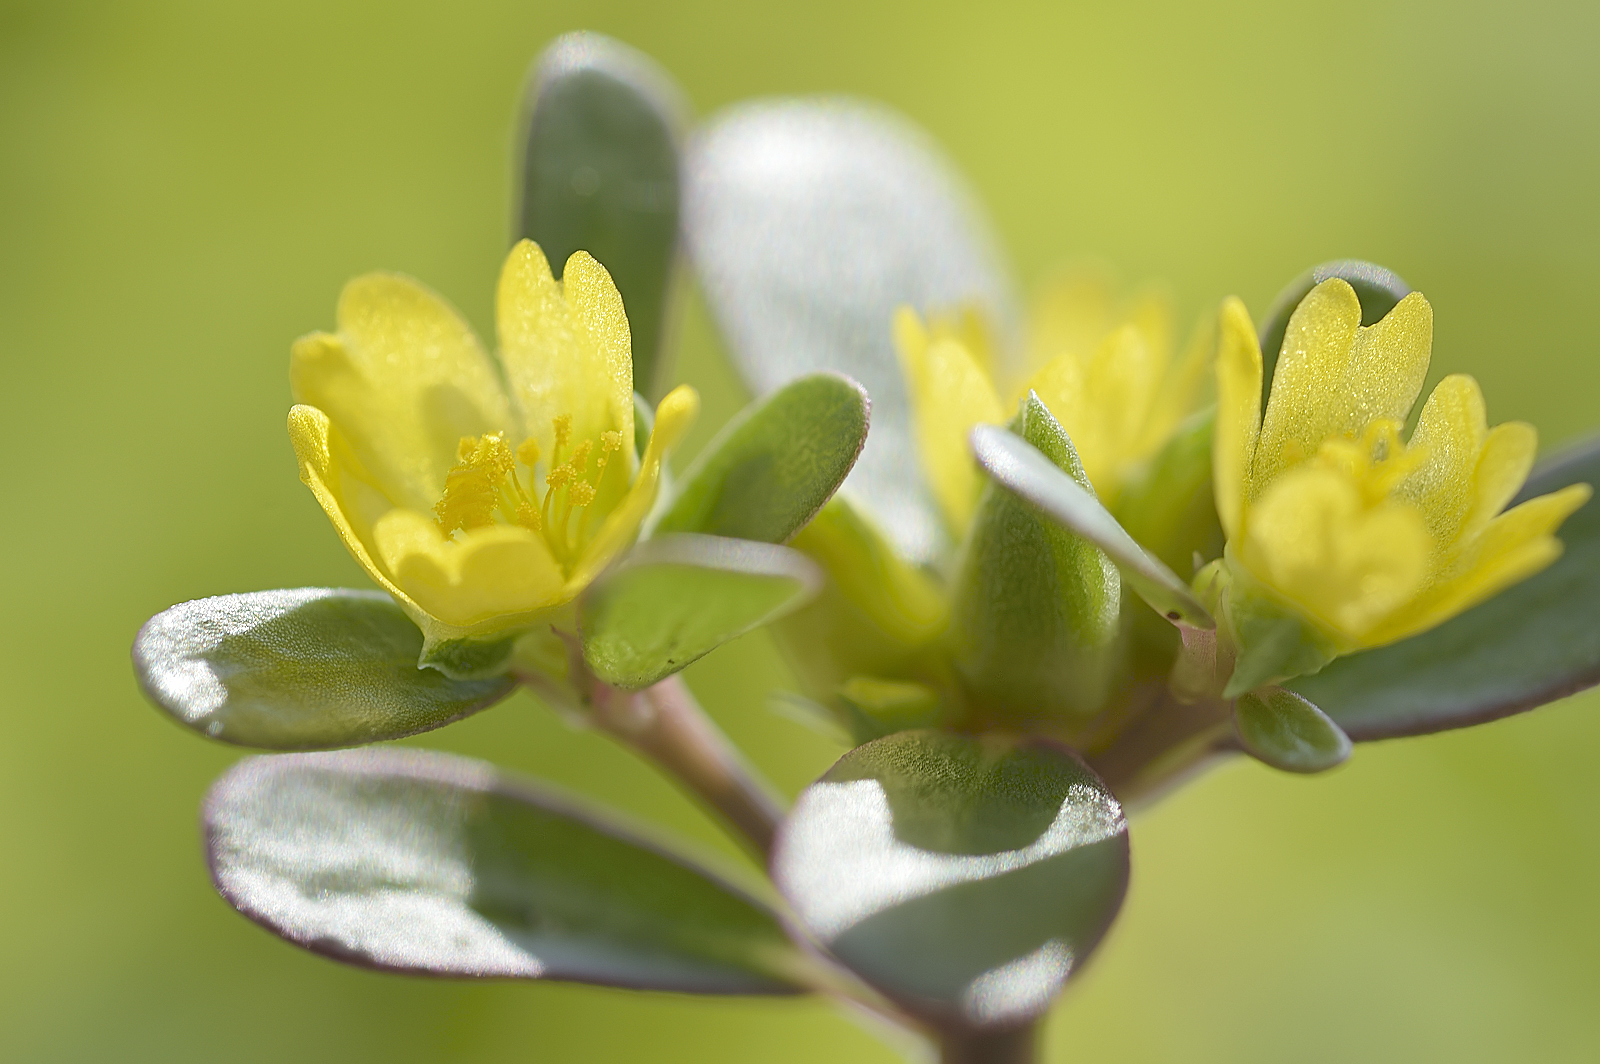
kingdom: Plantae
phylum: Tracheophyta
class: Magnoliopsida
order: Caryophyllales
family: Portulacaceae
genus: Portulaca
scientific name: Portulaca oleracea
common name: Common purslane
